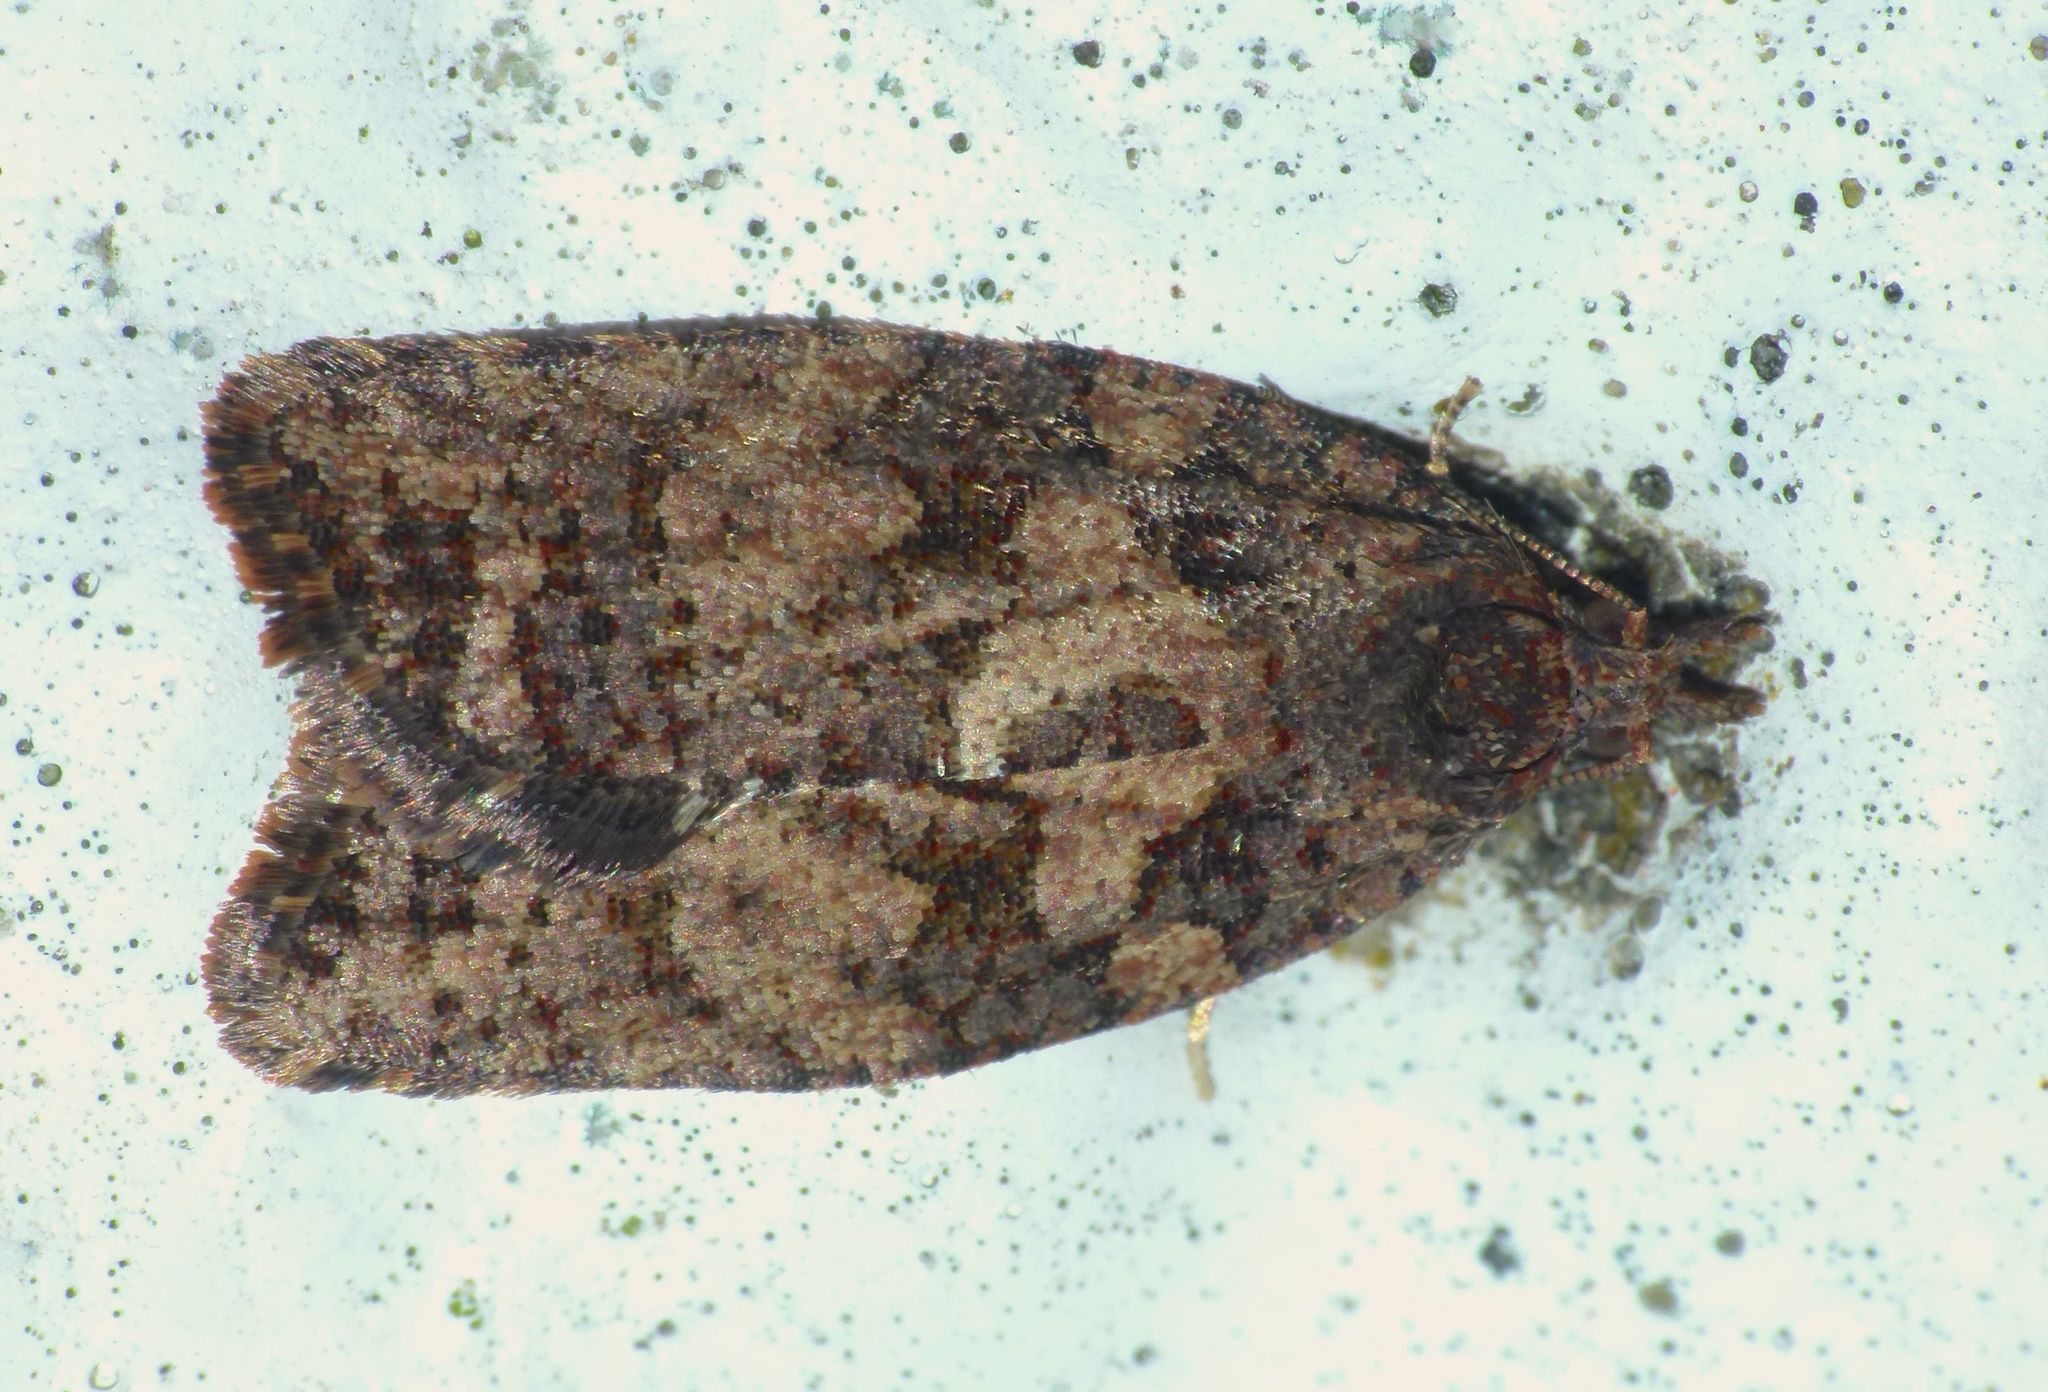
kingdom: Animalia
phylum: Arthropoda
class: Insecta
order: Lepidoptera
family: Tortricidae
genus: Capua
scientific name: Capua intractana
